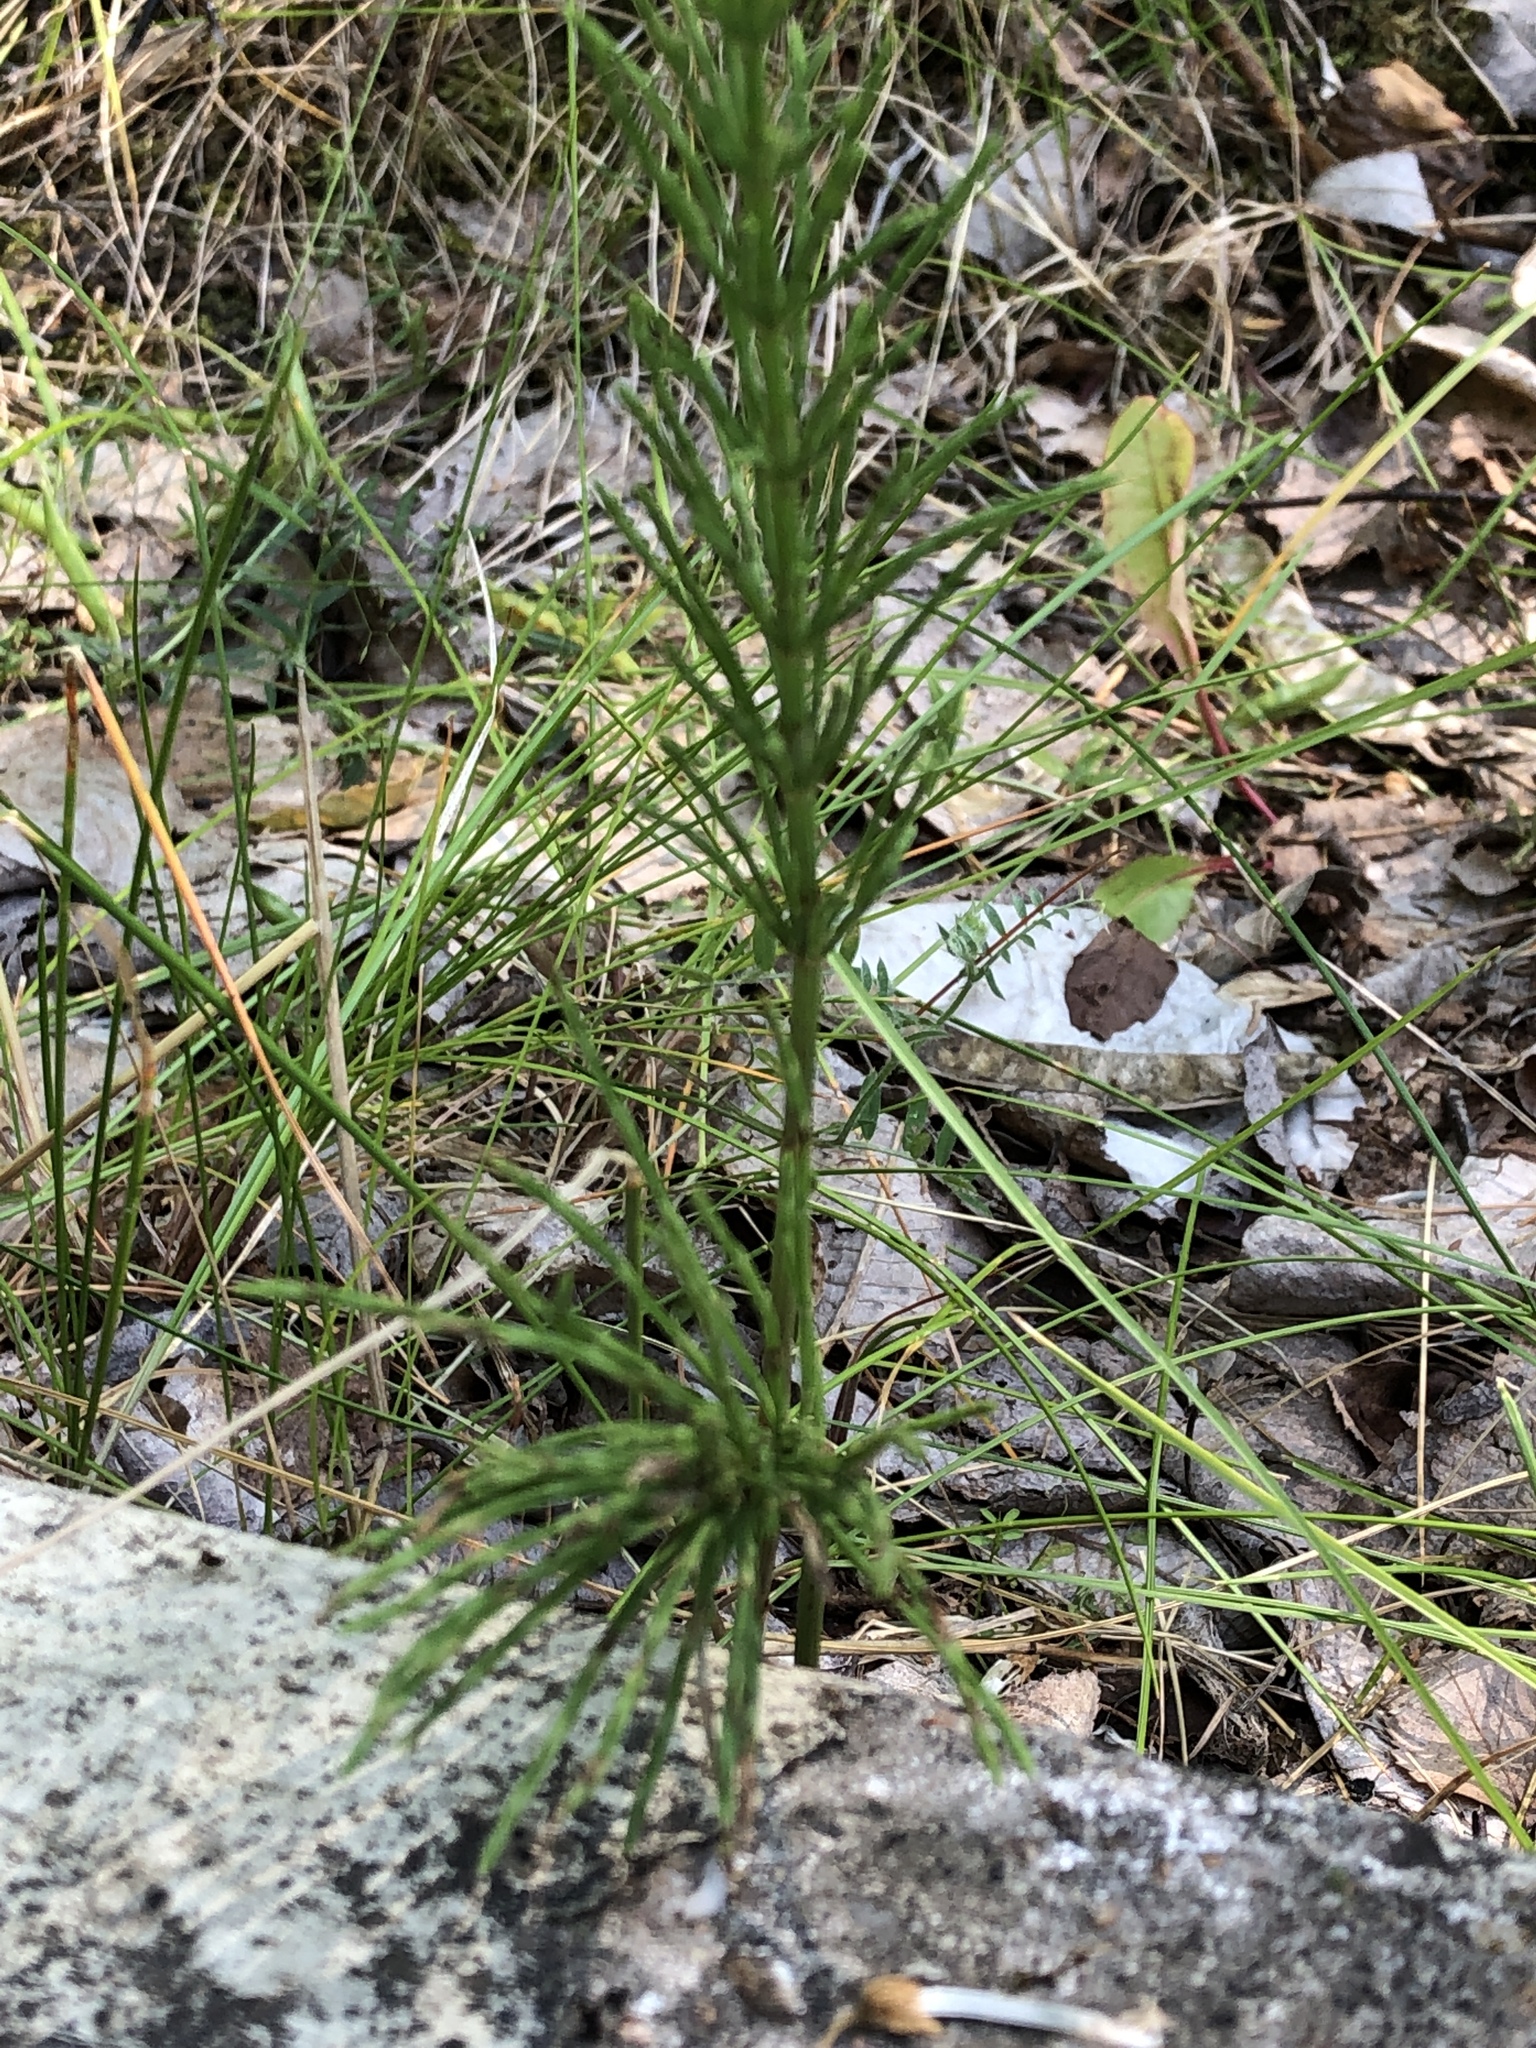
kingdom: Plantae
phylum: Tracheophyta
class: Polypodiopsida
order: Equisetales
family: Equisetaceae
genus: Equisetum
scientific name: Equisetum arvense
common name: Field horsetail
